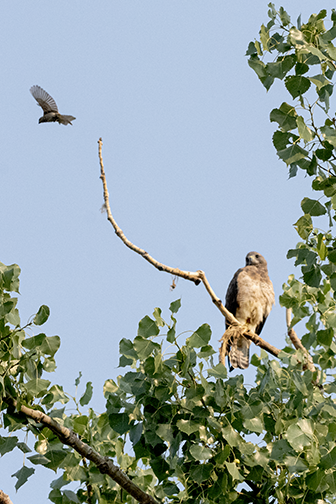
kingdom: Animalia
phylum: Chordata
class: Aves
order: Accipitriformes
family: Accipitridae
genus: Buteo
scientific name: Buteo swainsoni
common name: Swainson's hawk
